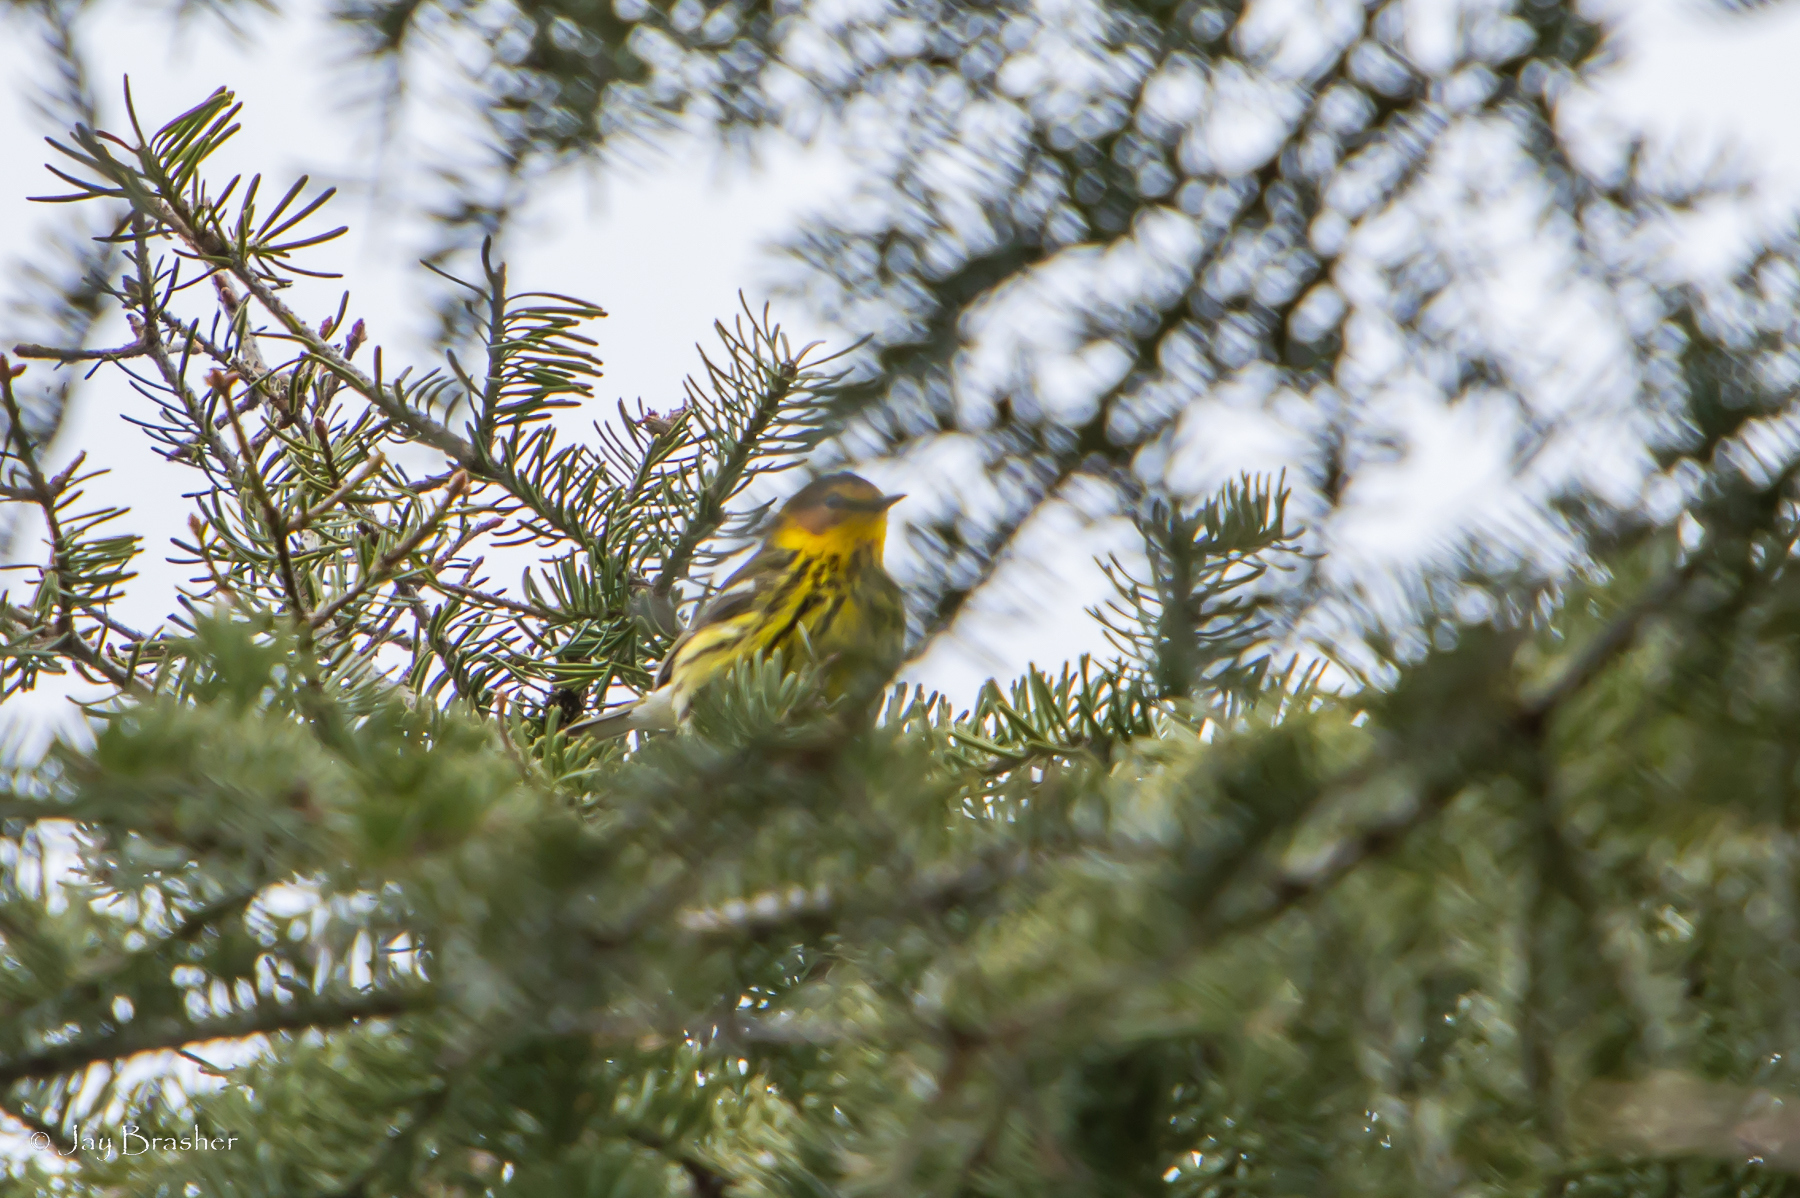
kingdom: Animalia
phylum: Chordata
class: Aves
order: Passeriformes
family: Parulidae
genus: Setophaga
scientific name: Setophaga tigrina
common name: Cape may warbler
